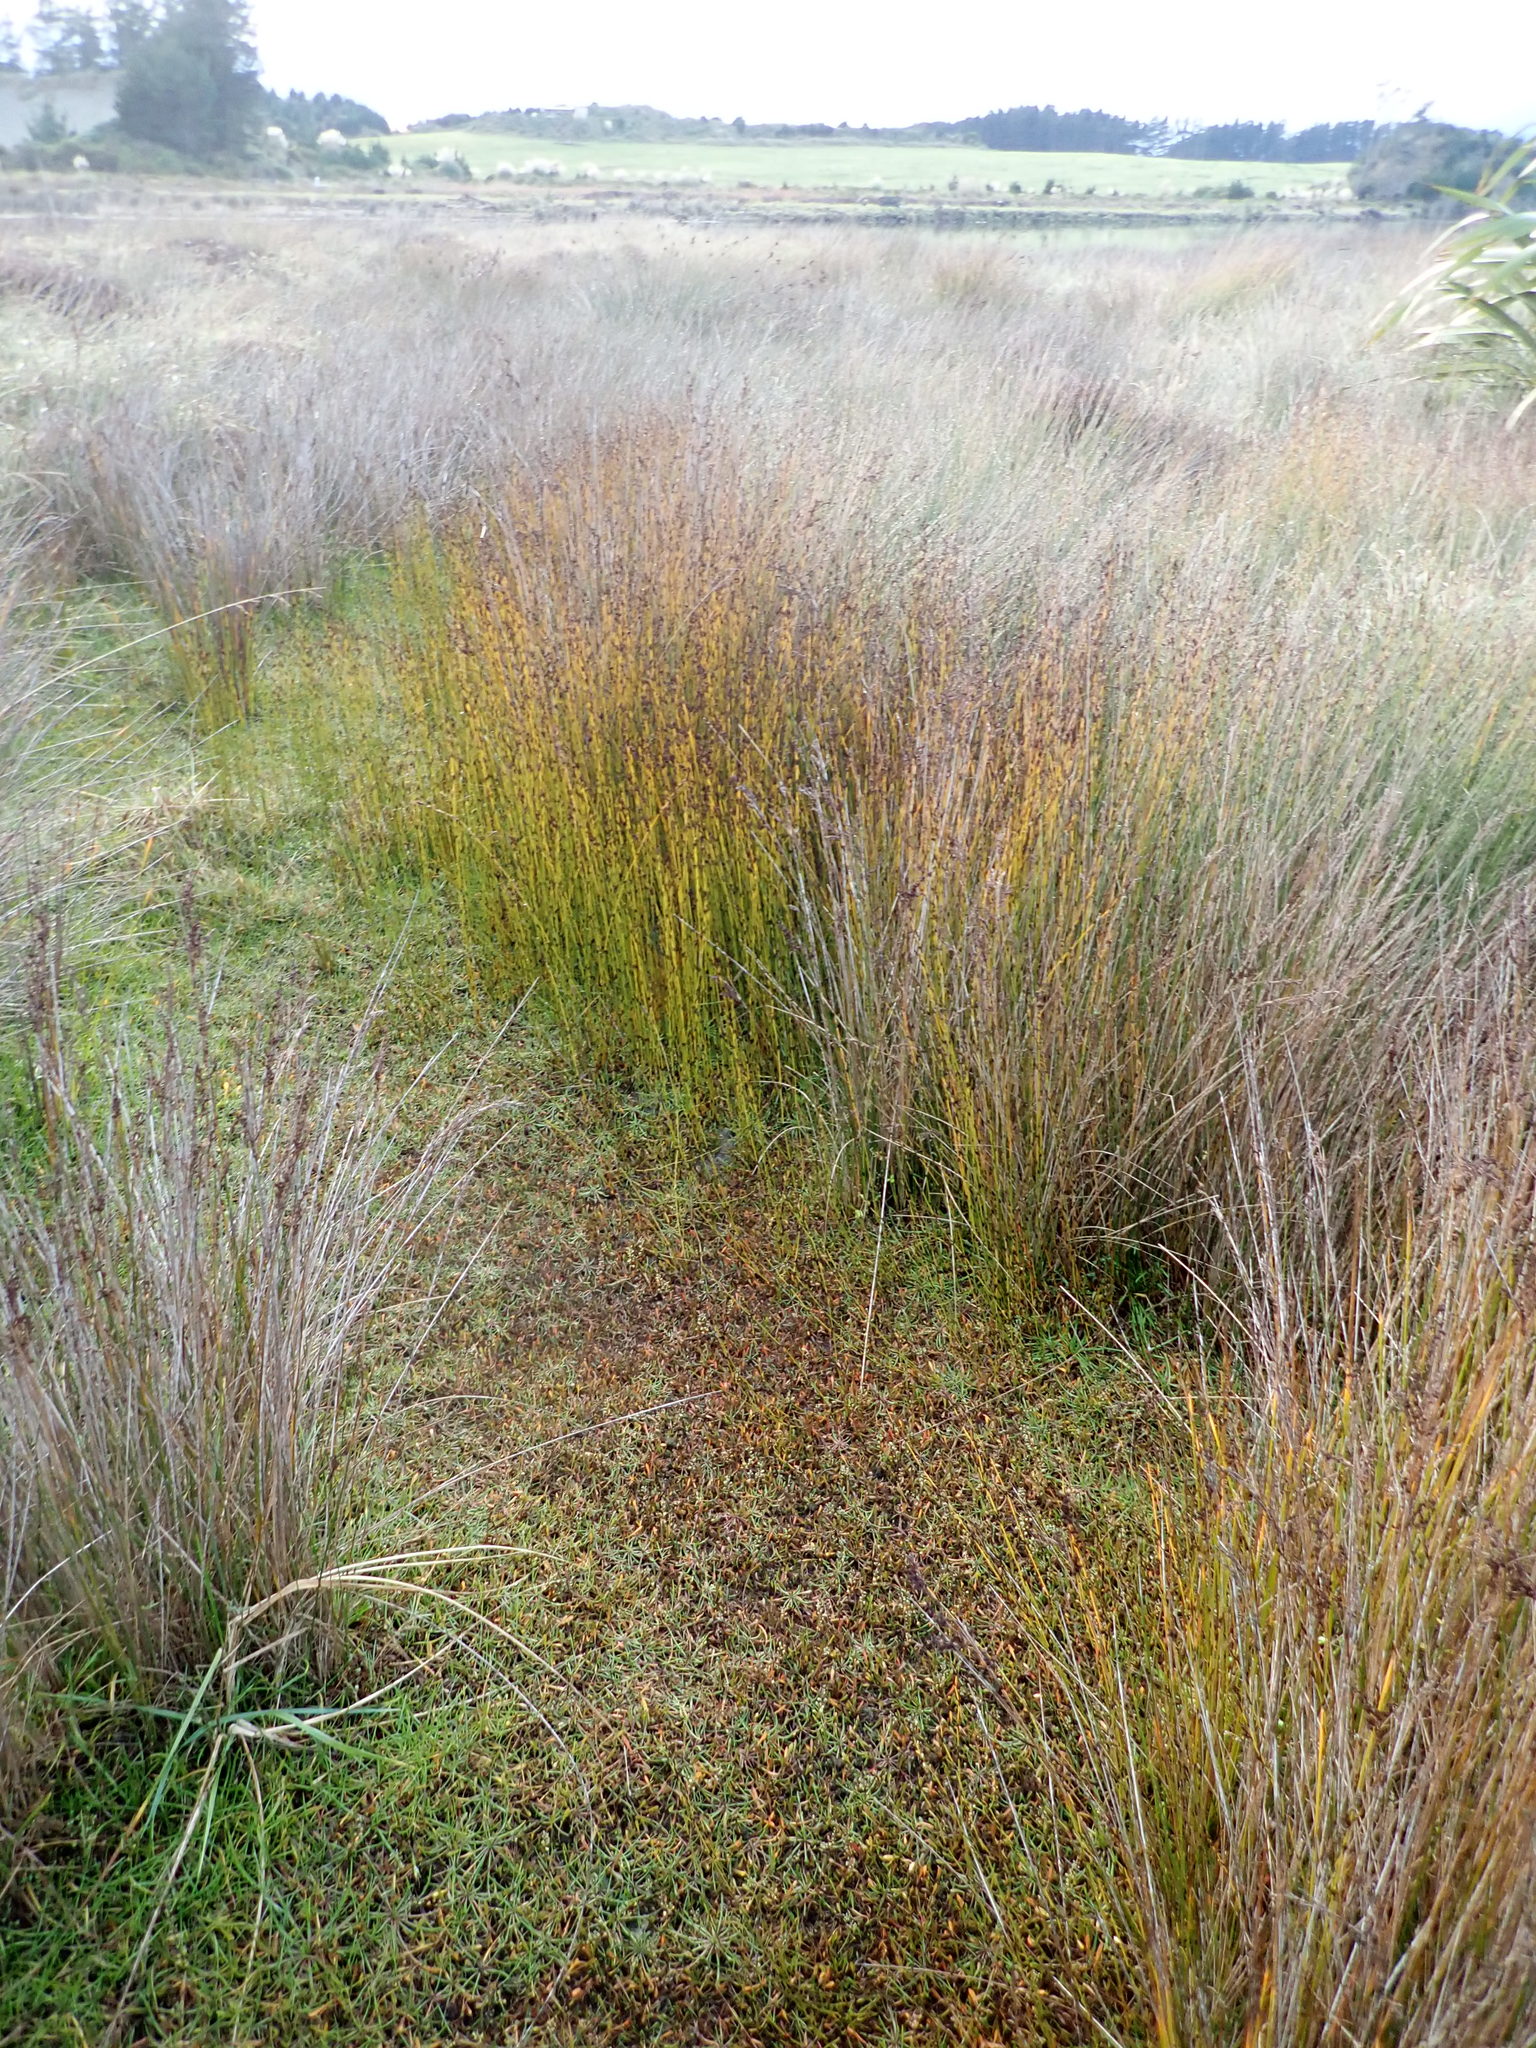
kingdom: Plantae
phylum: Tracheophyta
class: Liliopsida
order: Poales
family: Restionaceae
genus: Apodasmia
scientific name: Apodasmia similis
